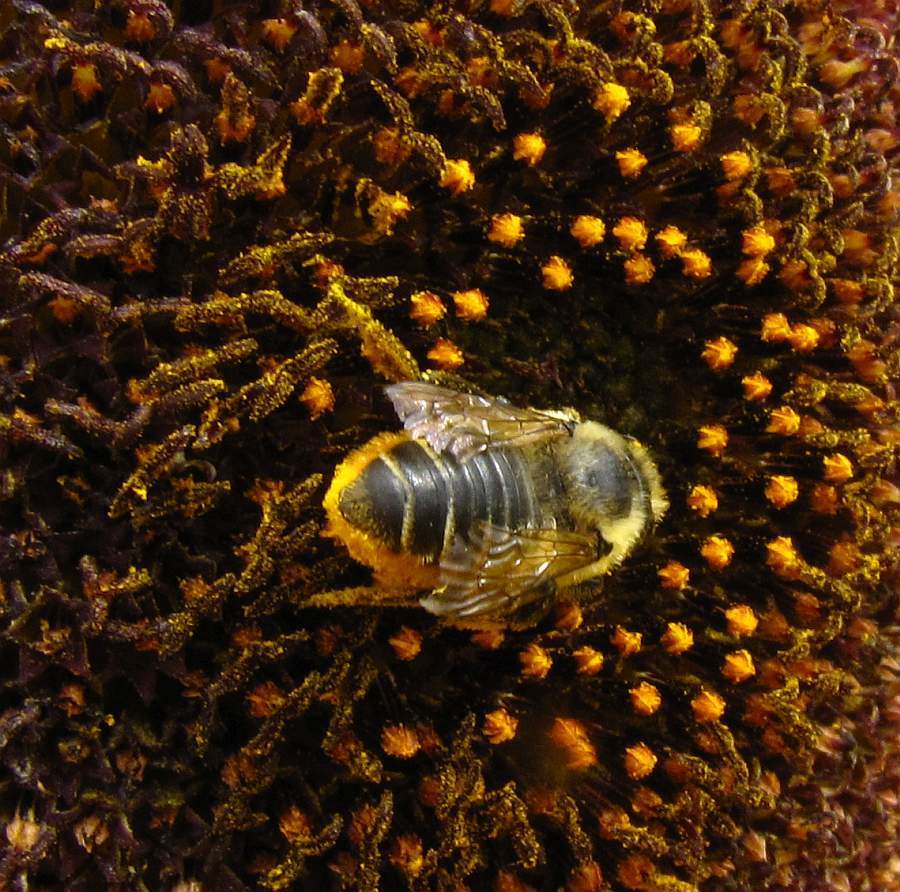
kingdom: Animalia
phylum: Arthropoda
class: Insecta
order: Hymenoptera
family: Megachilidae
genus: Megachile
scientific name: Megachile latimanus
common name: Leafcutting bee
